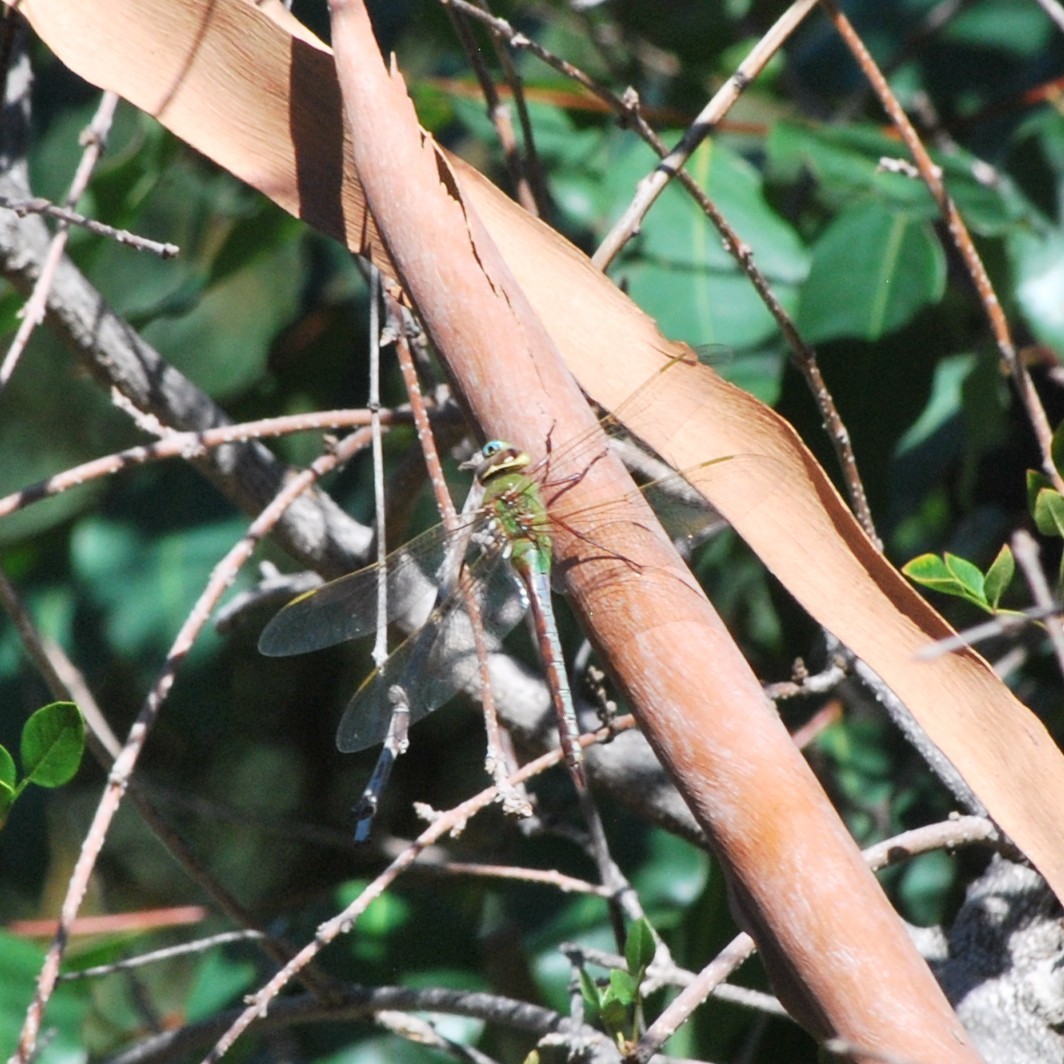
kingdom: Animalia
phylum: Arthropoda
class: Insecta
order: Odonata
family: Aeshnidae
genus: Anax
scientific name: Anax junius
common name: Common green darner
